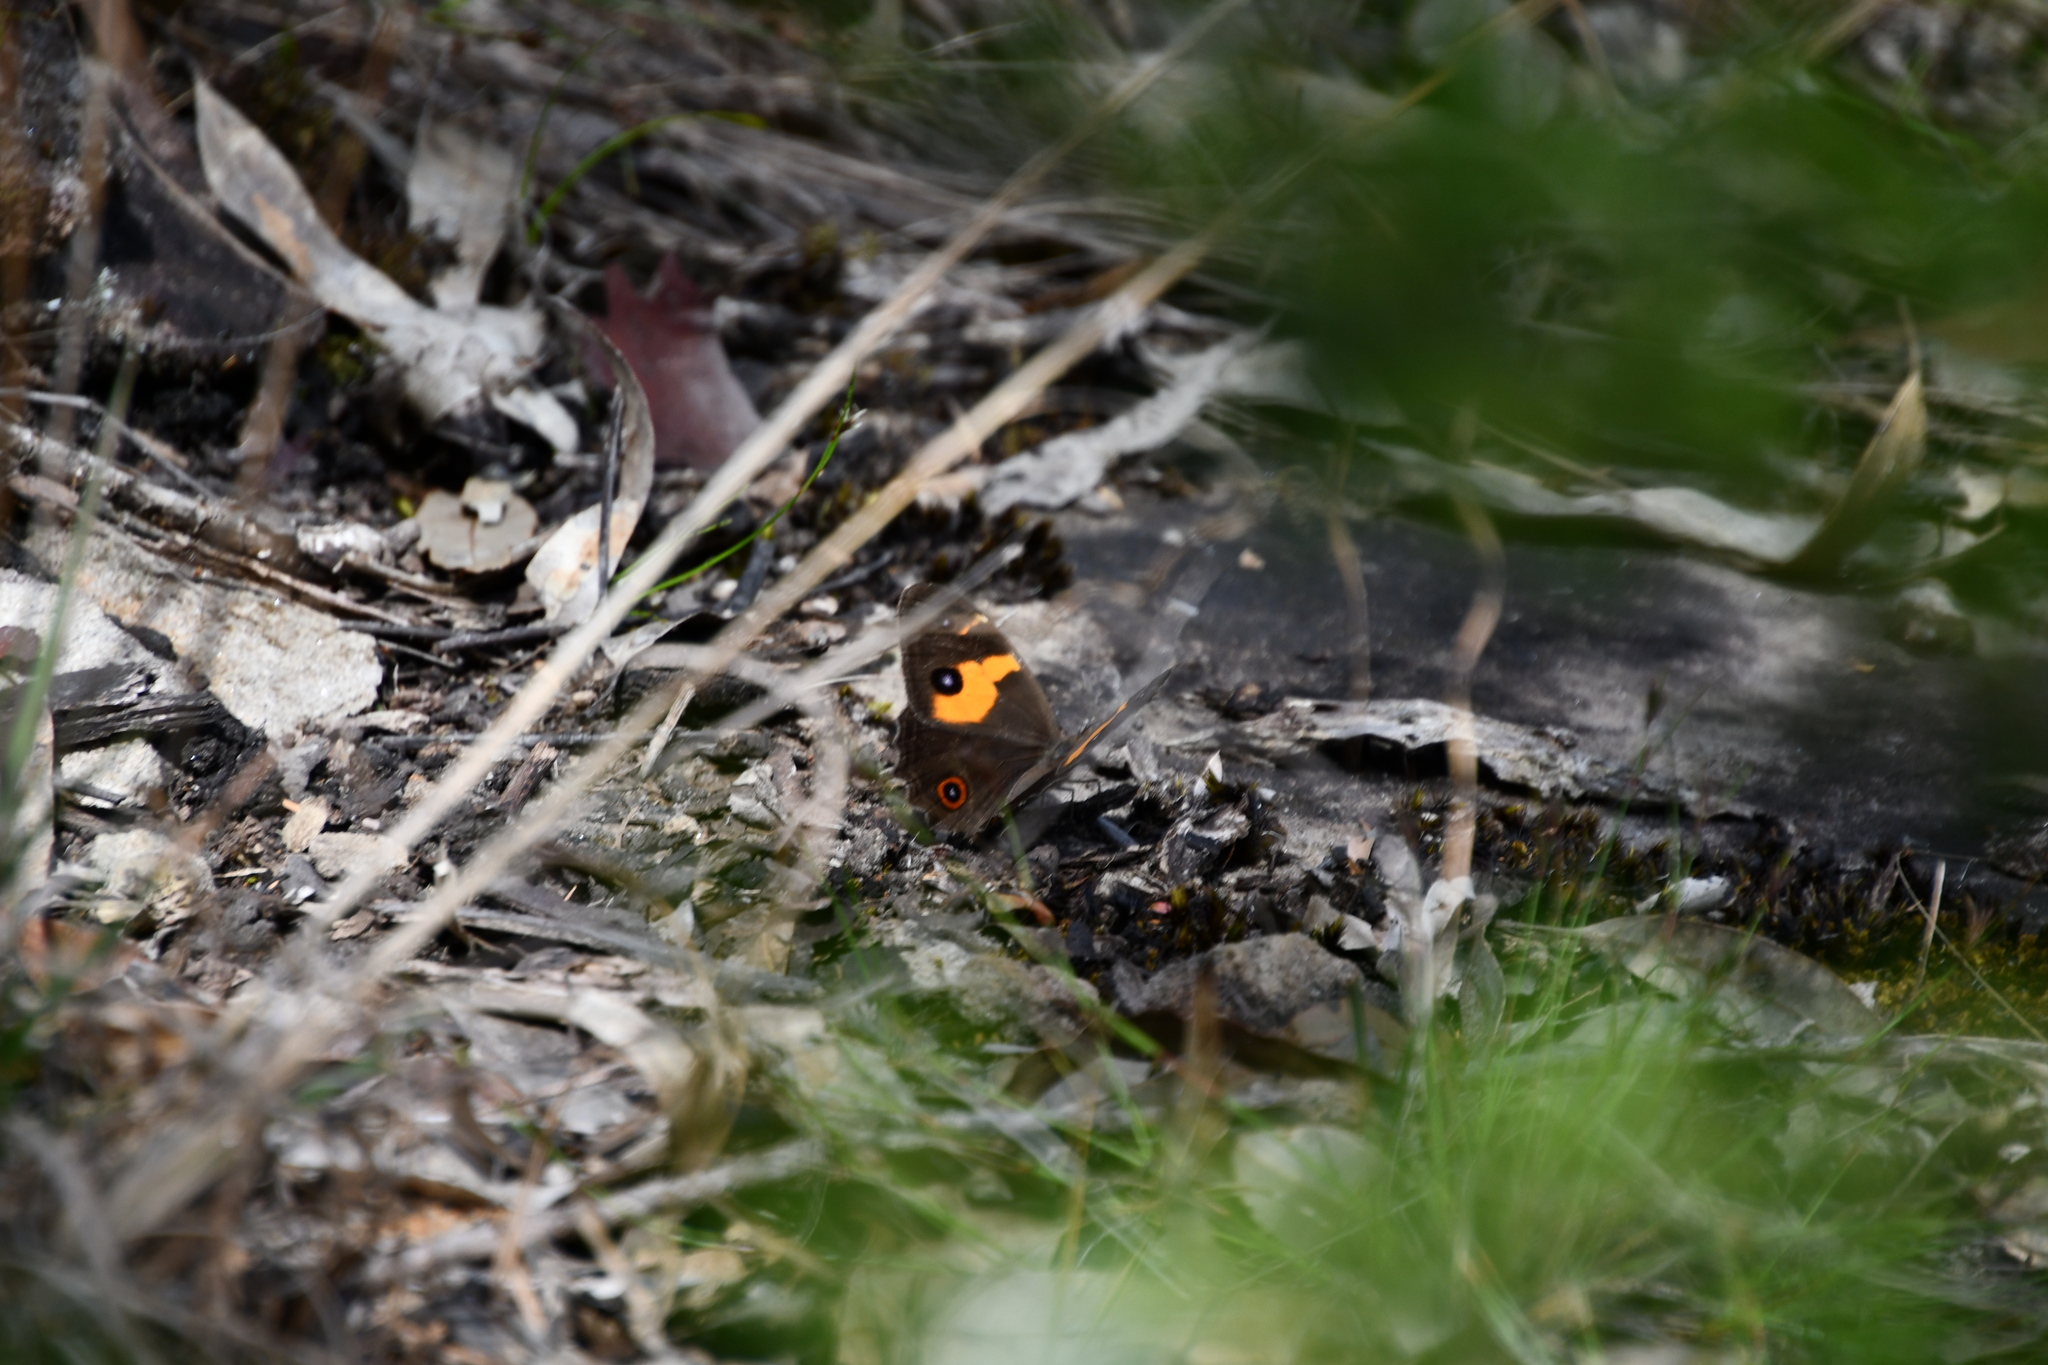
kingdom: Animalia
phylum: Arthropoda
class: Insecta
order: Lepidoptera
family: Nymphalidae
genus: Tisiphone
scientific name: Tisiphone abeona
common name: Swordgrass brown
